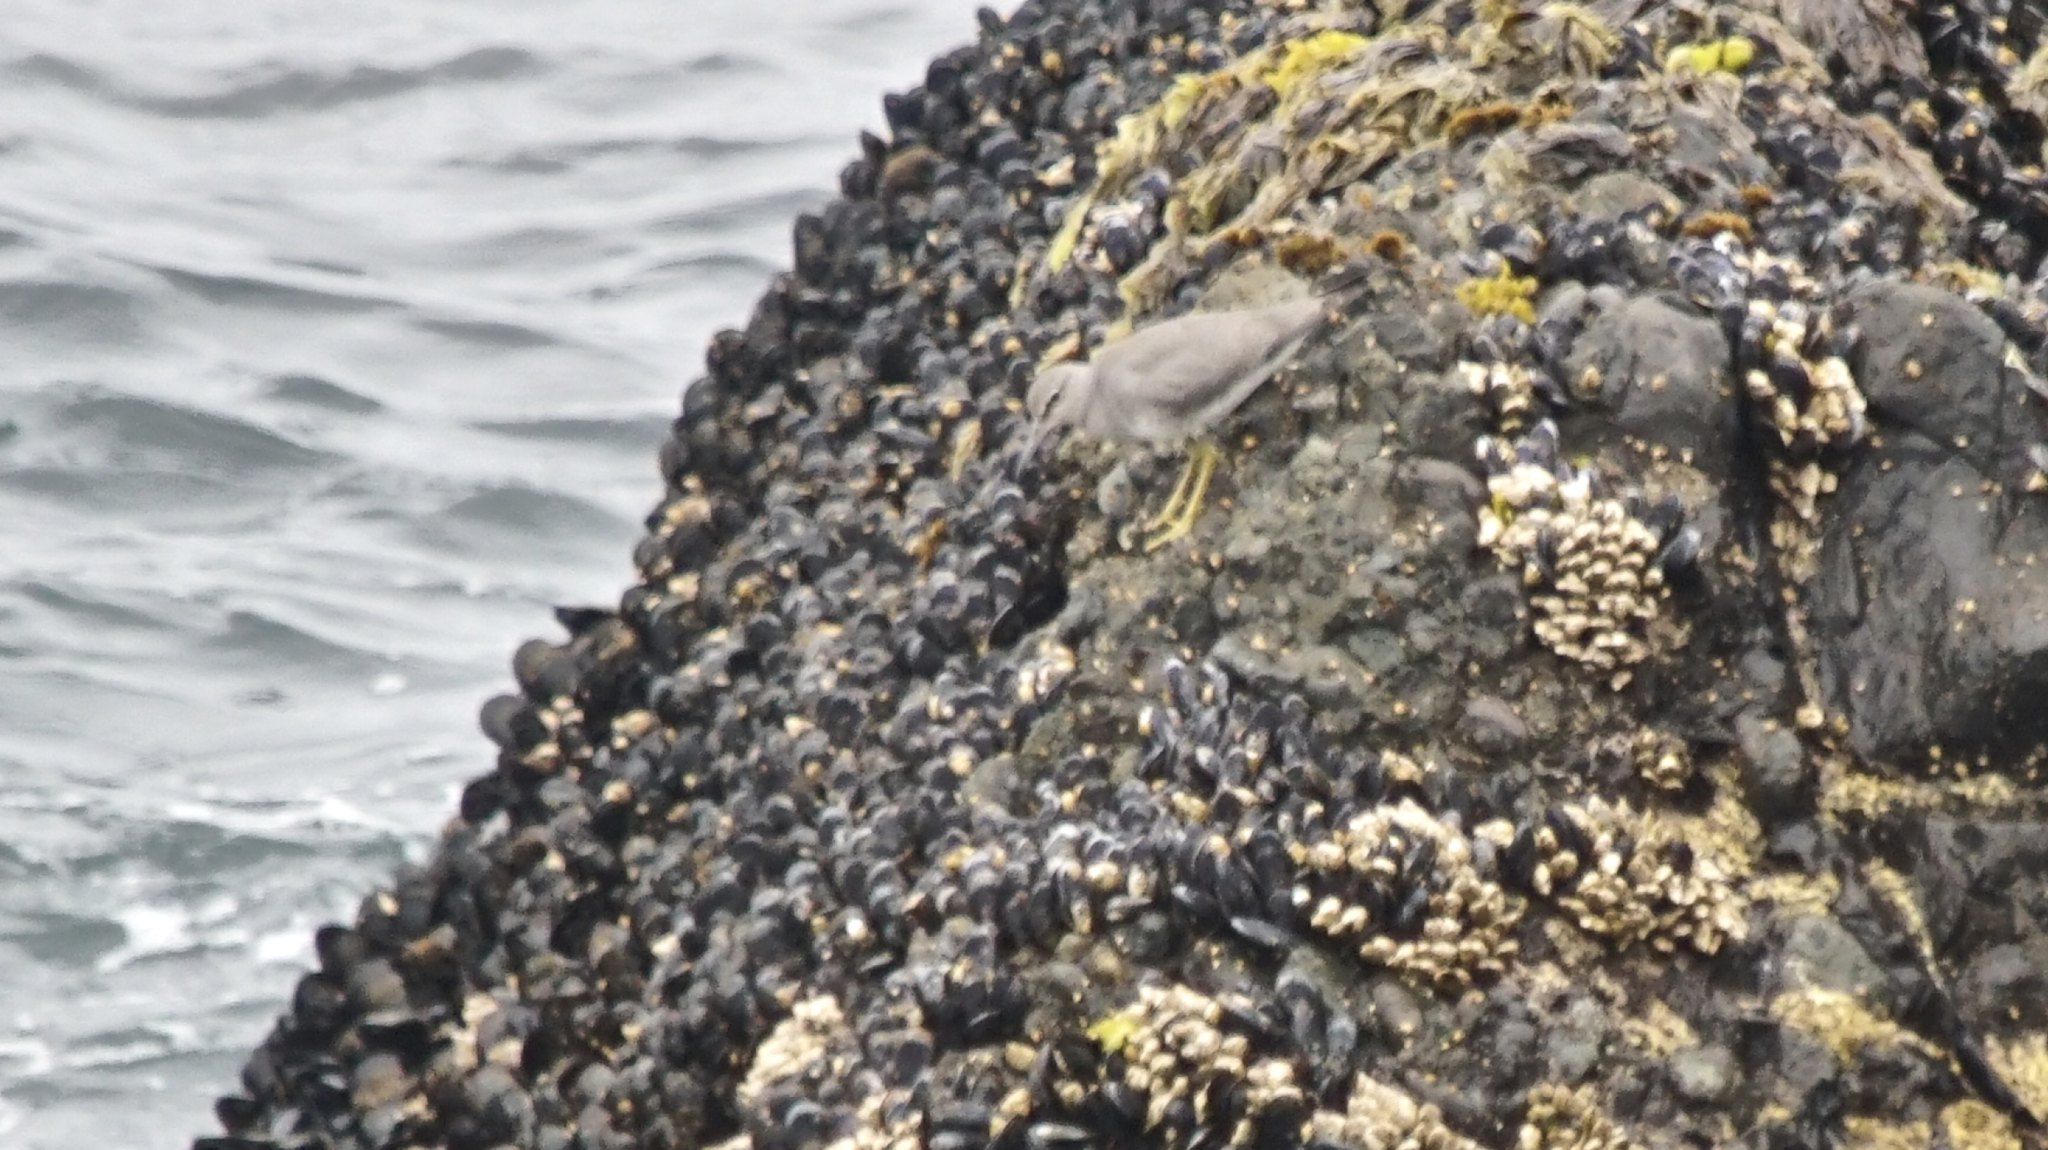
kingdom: Animalia
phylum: Chordata
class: Aves
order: Charadriiformes
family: Scolopacidae
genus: Tringa
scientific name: Tringa incana
